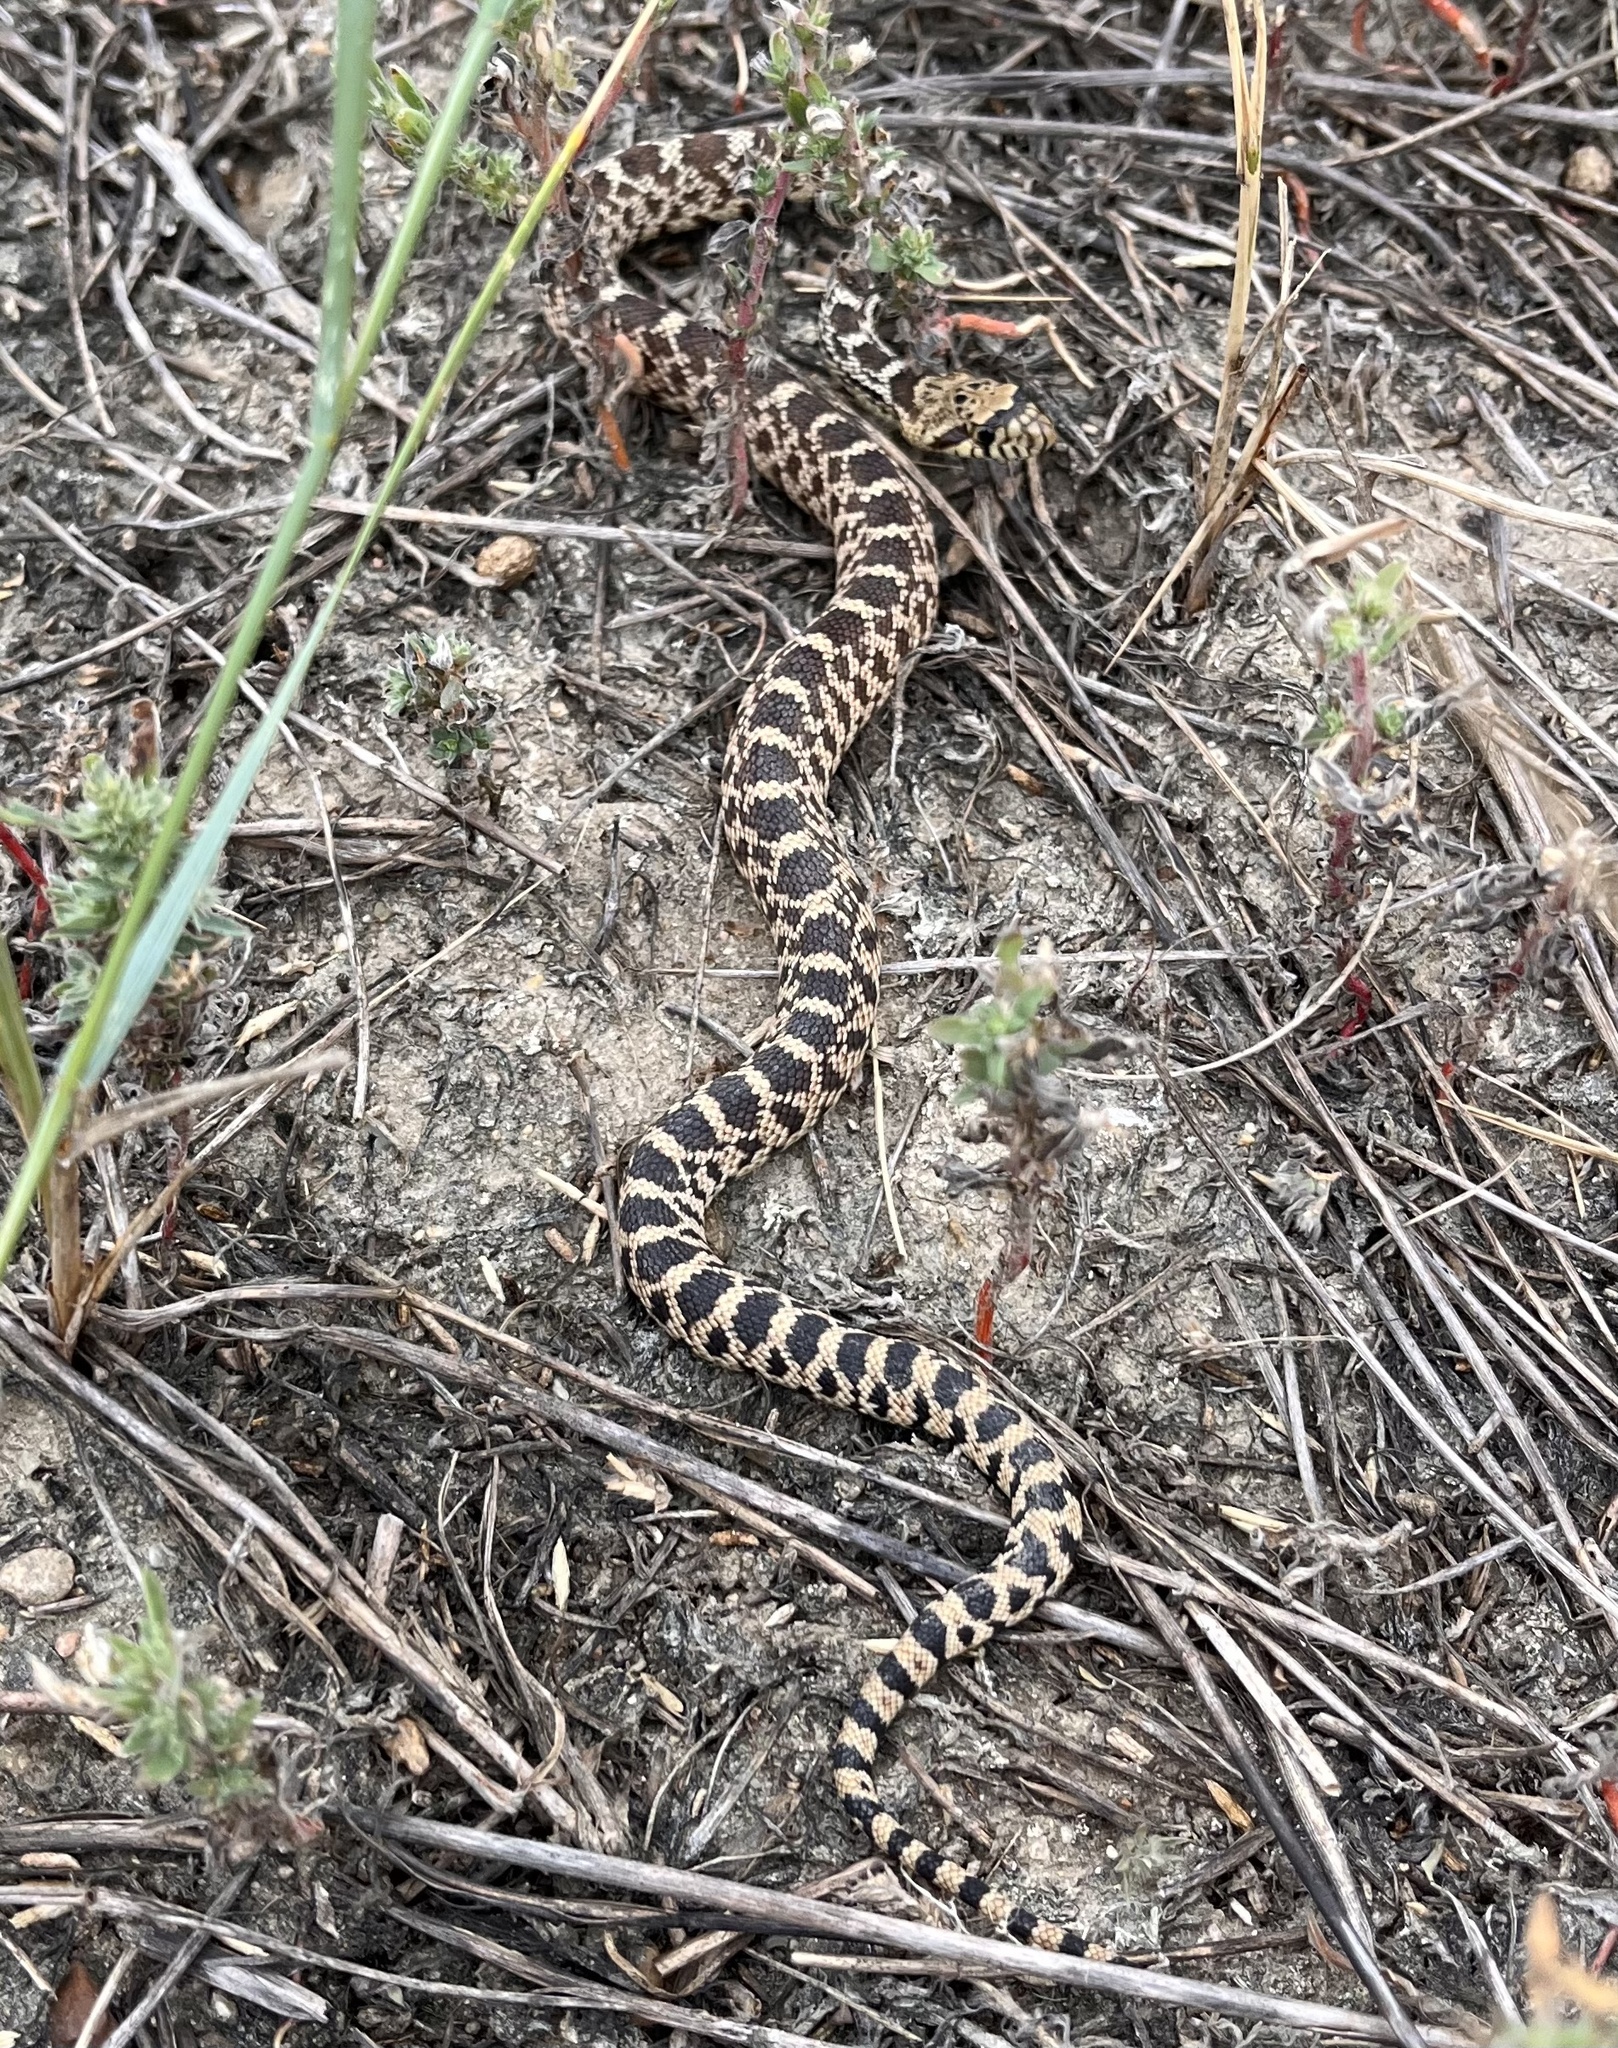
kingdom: Animalia
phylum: Chordata
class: Squamata
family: Colubridae
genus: Pituophis
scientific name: Pituophis catenifer
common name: Gopher snake
